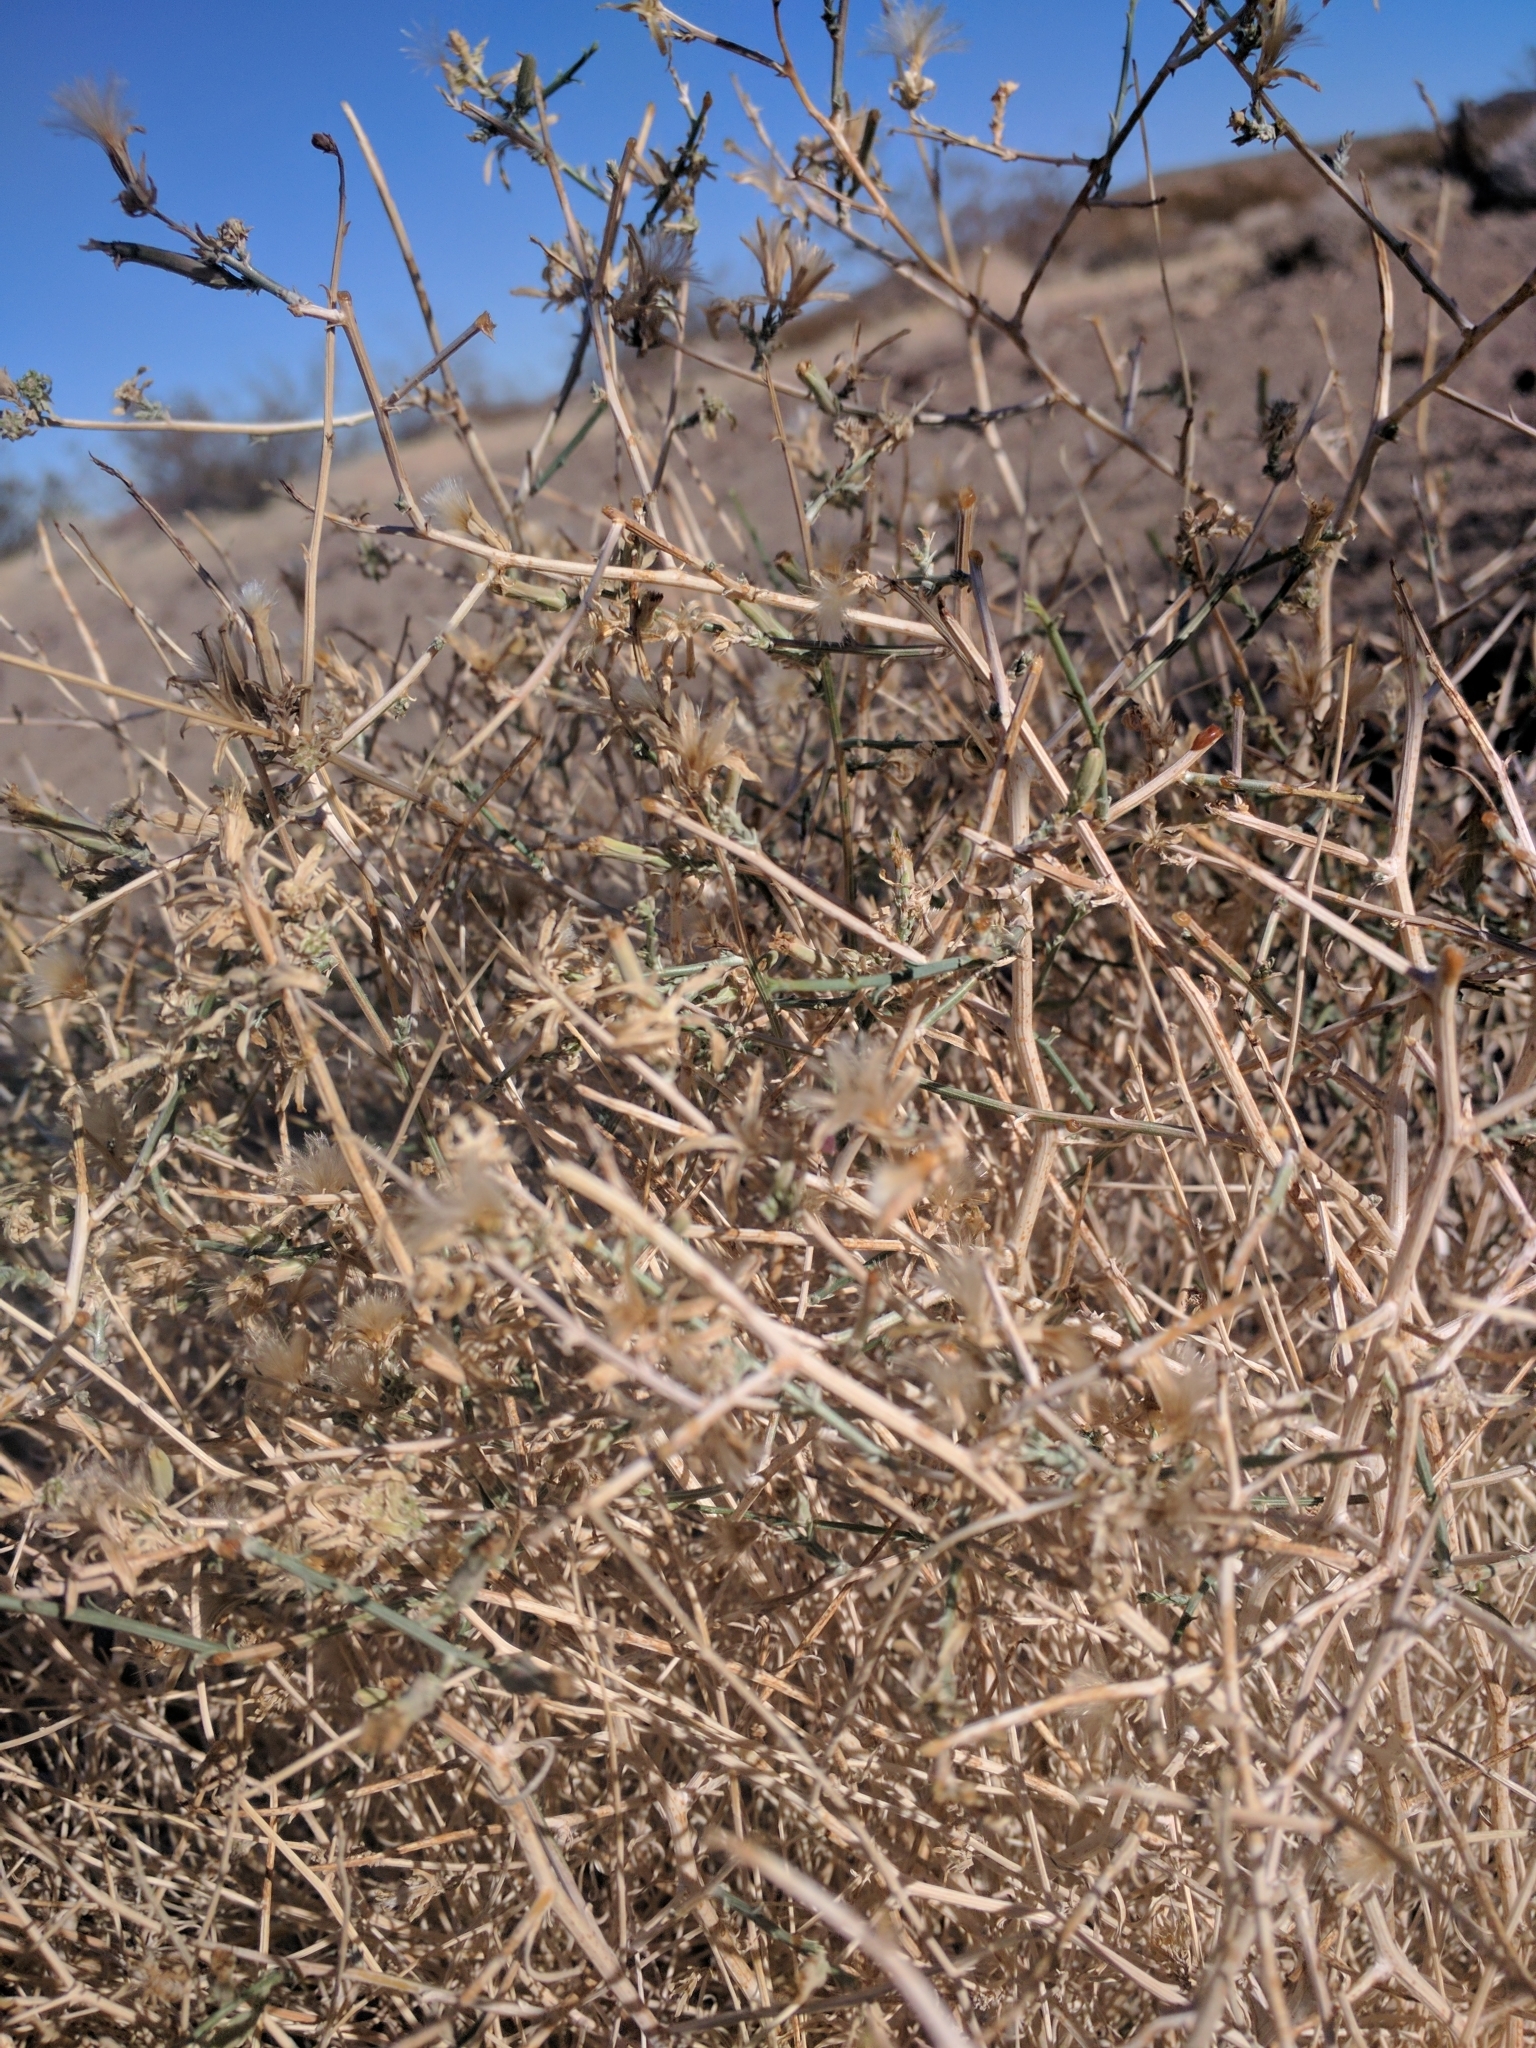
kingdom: Plantae
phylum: Tracheophyta
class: Magnoliopsida
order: Asterales
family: Asteraceae
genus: Stephanomeria
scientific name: Stephanomeria pauciflora
